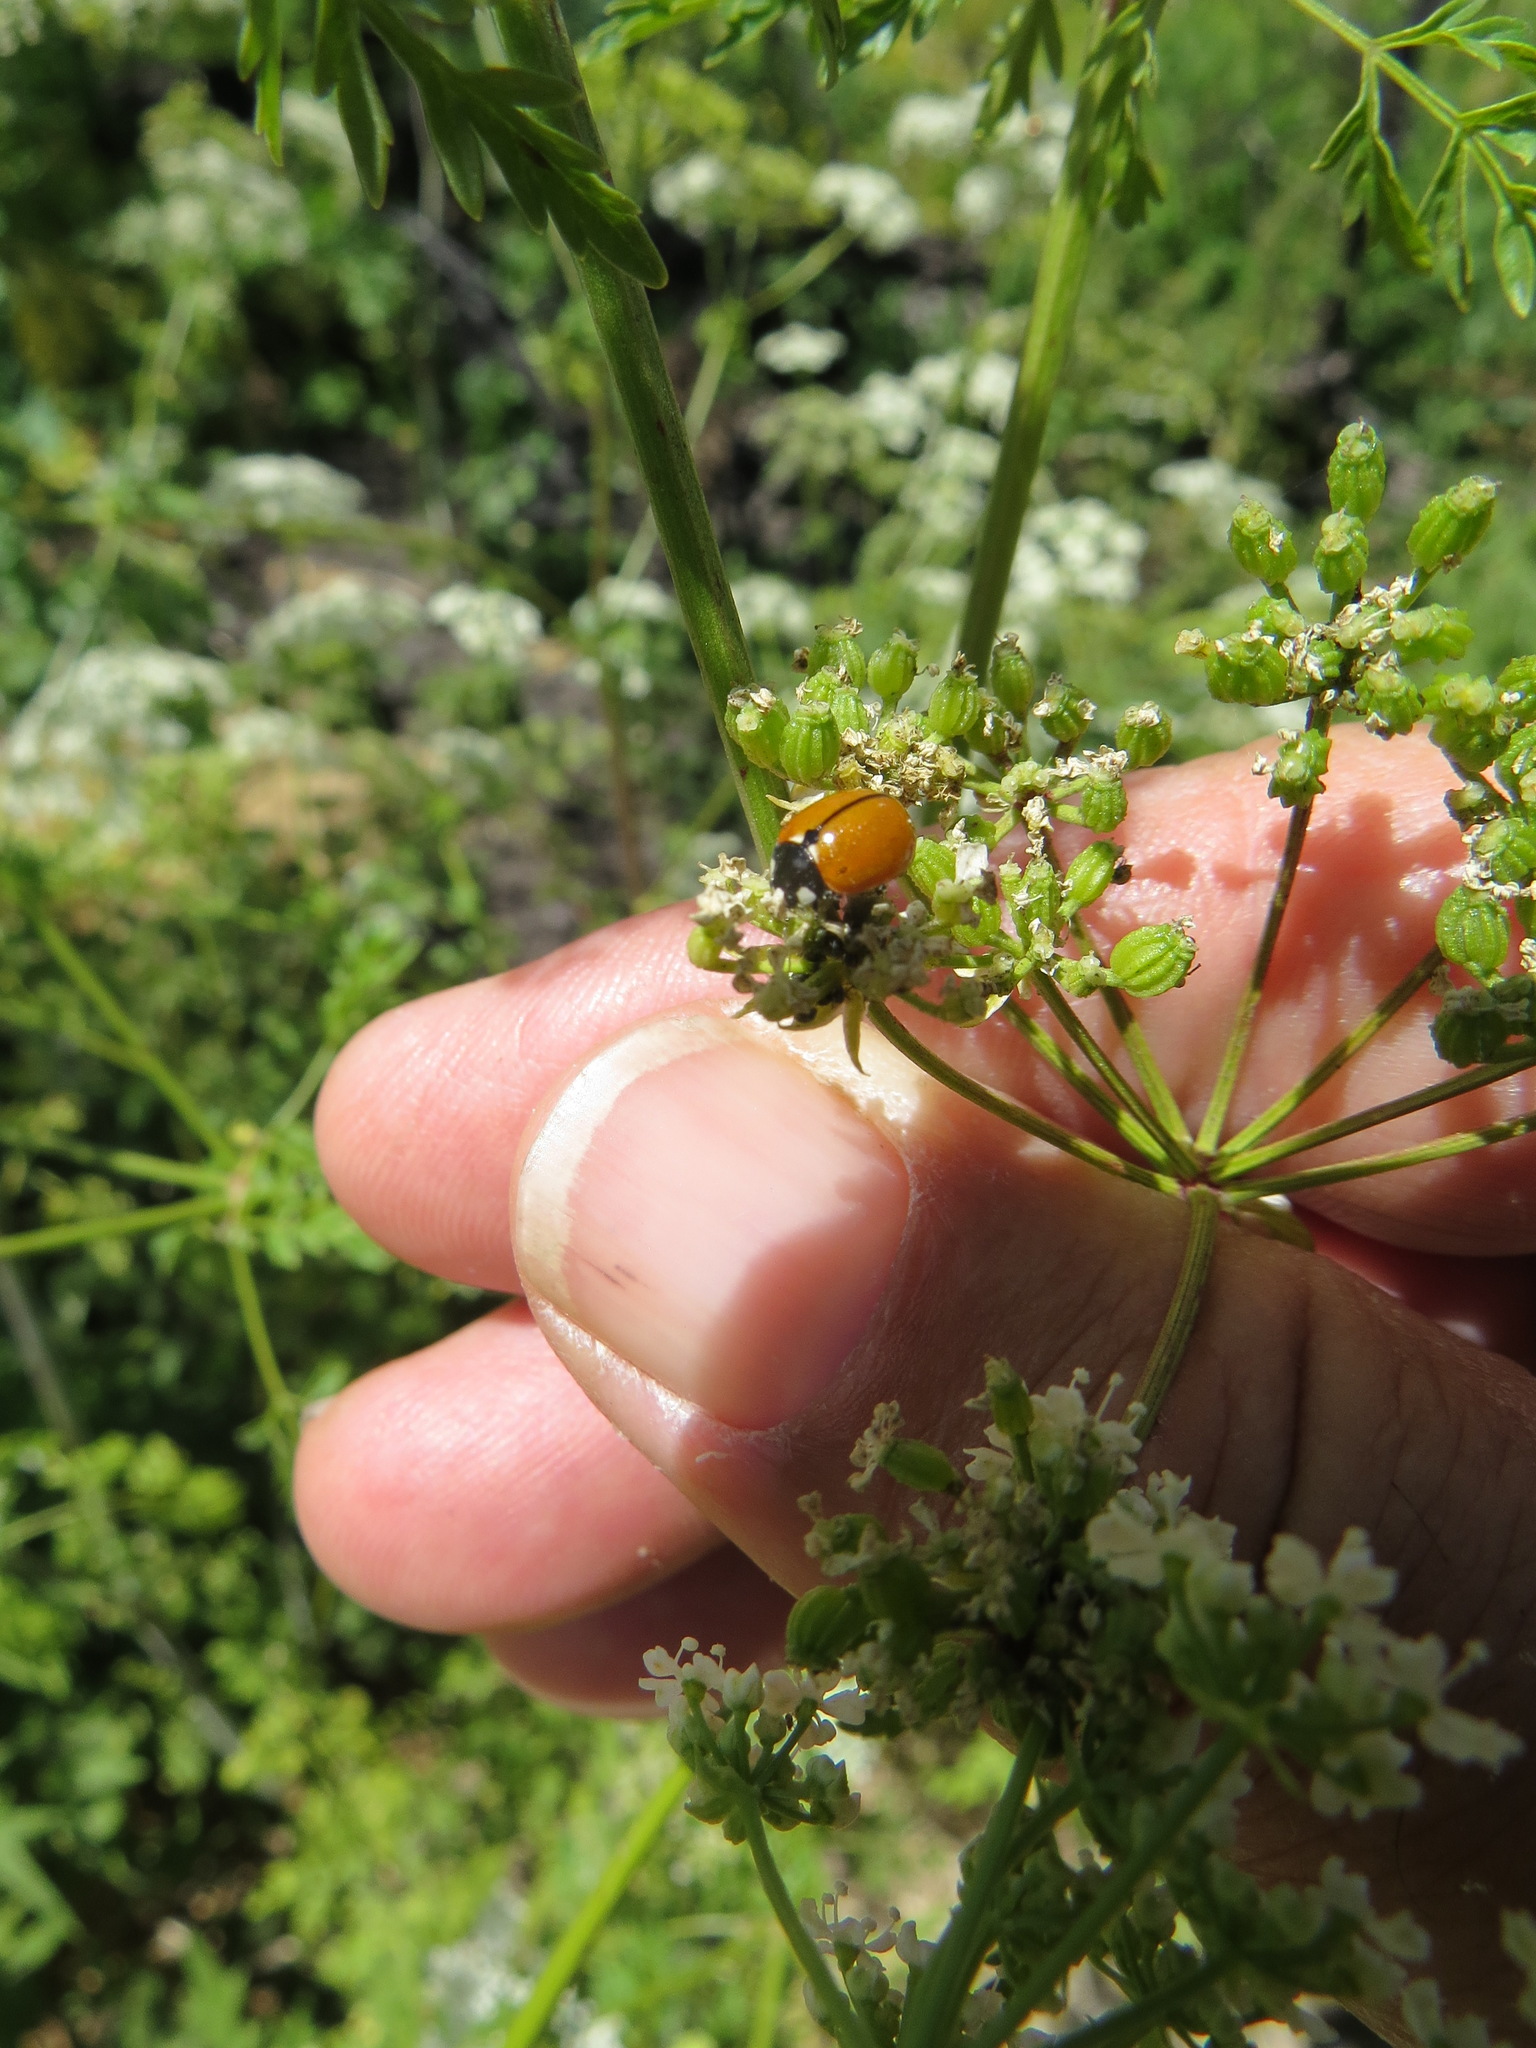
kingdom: Animalia
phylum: Arthropoda
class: Insecta
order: Coleoptera
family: Coccinellidae
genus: Coccinella
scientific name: Coccinella californica
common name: Lady beetle
